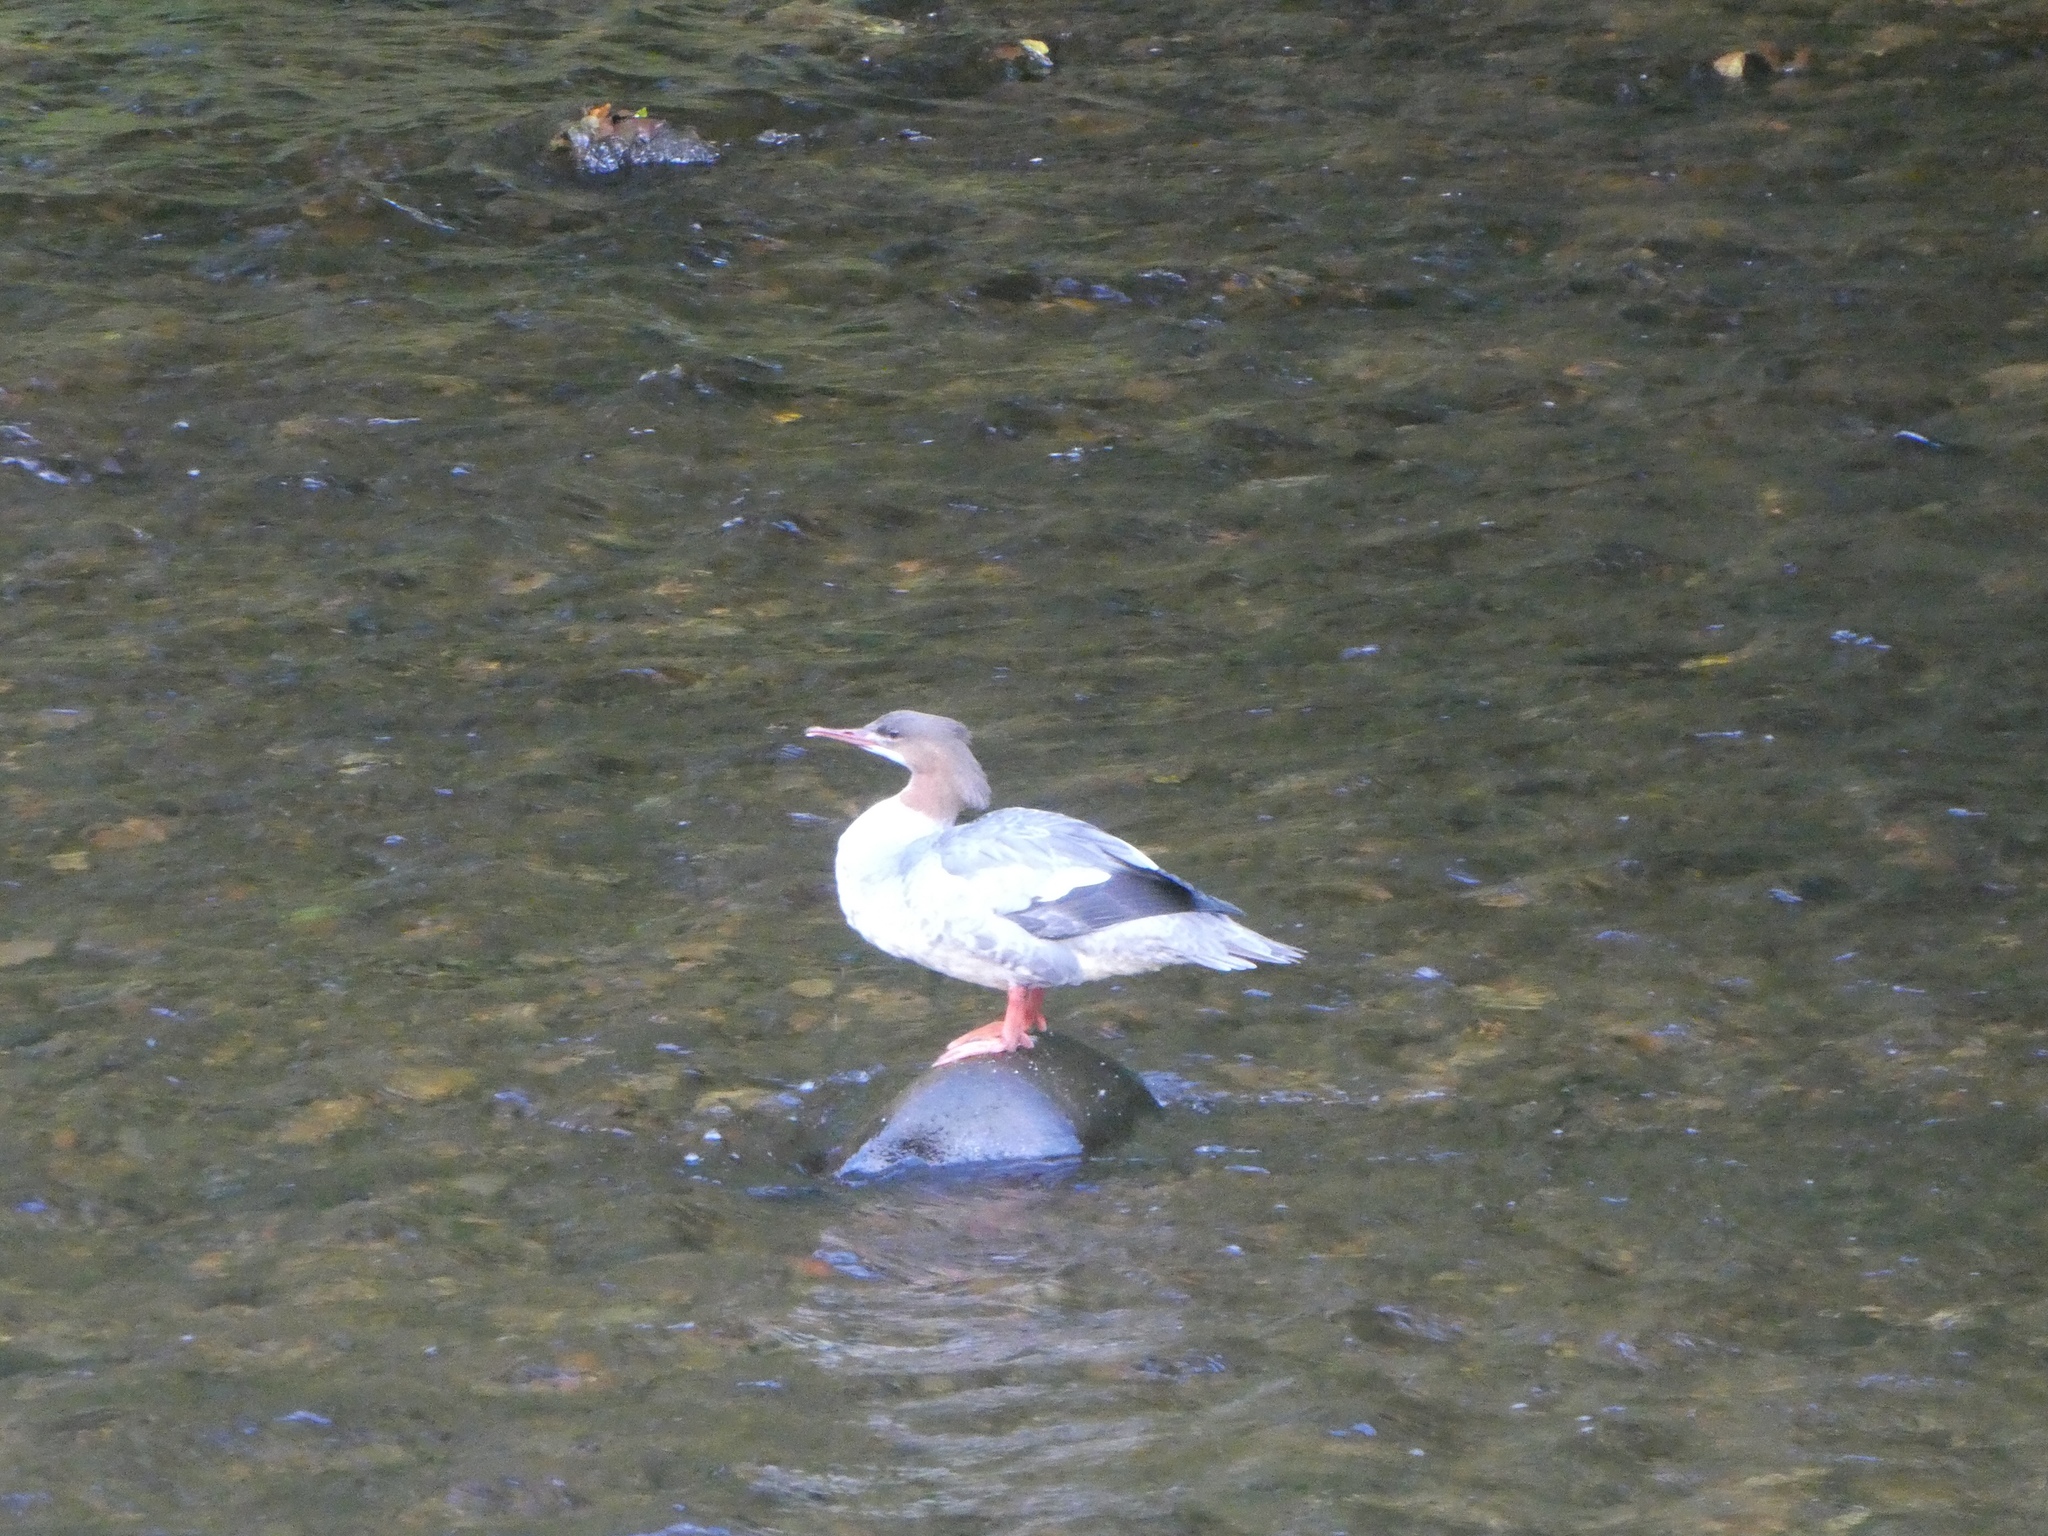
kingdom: Animalia
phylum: Chordata
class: Aves
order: Anseriformes
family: Anatidae
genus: Mergus
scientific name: Mergus merganser
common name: Common merganser
